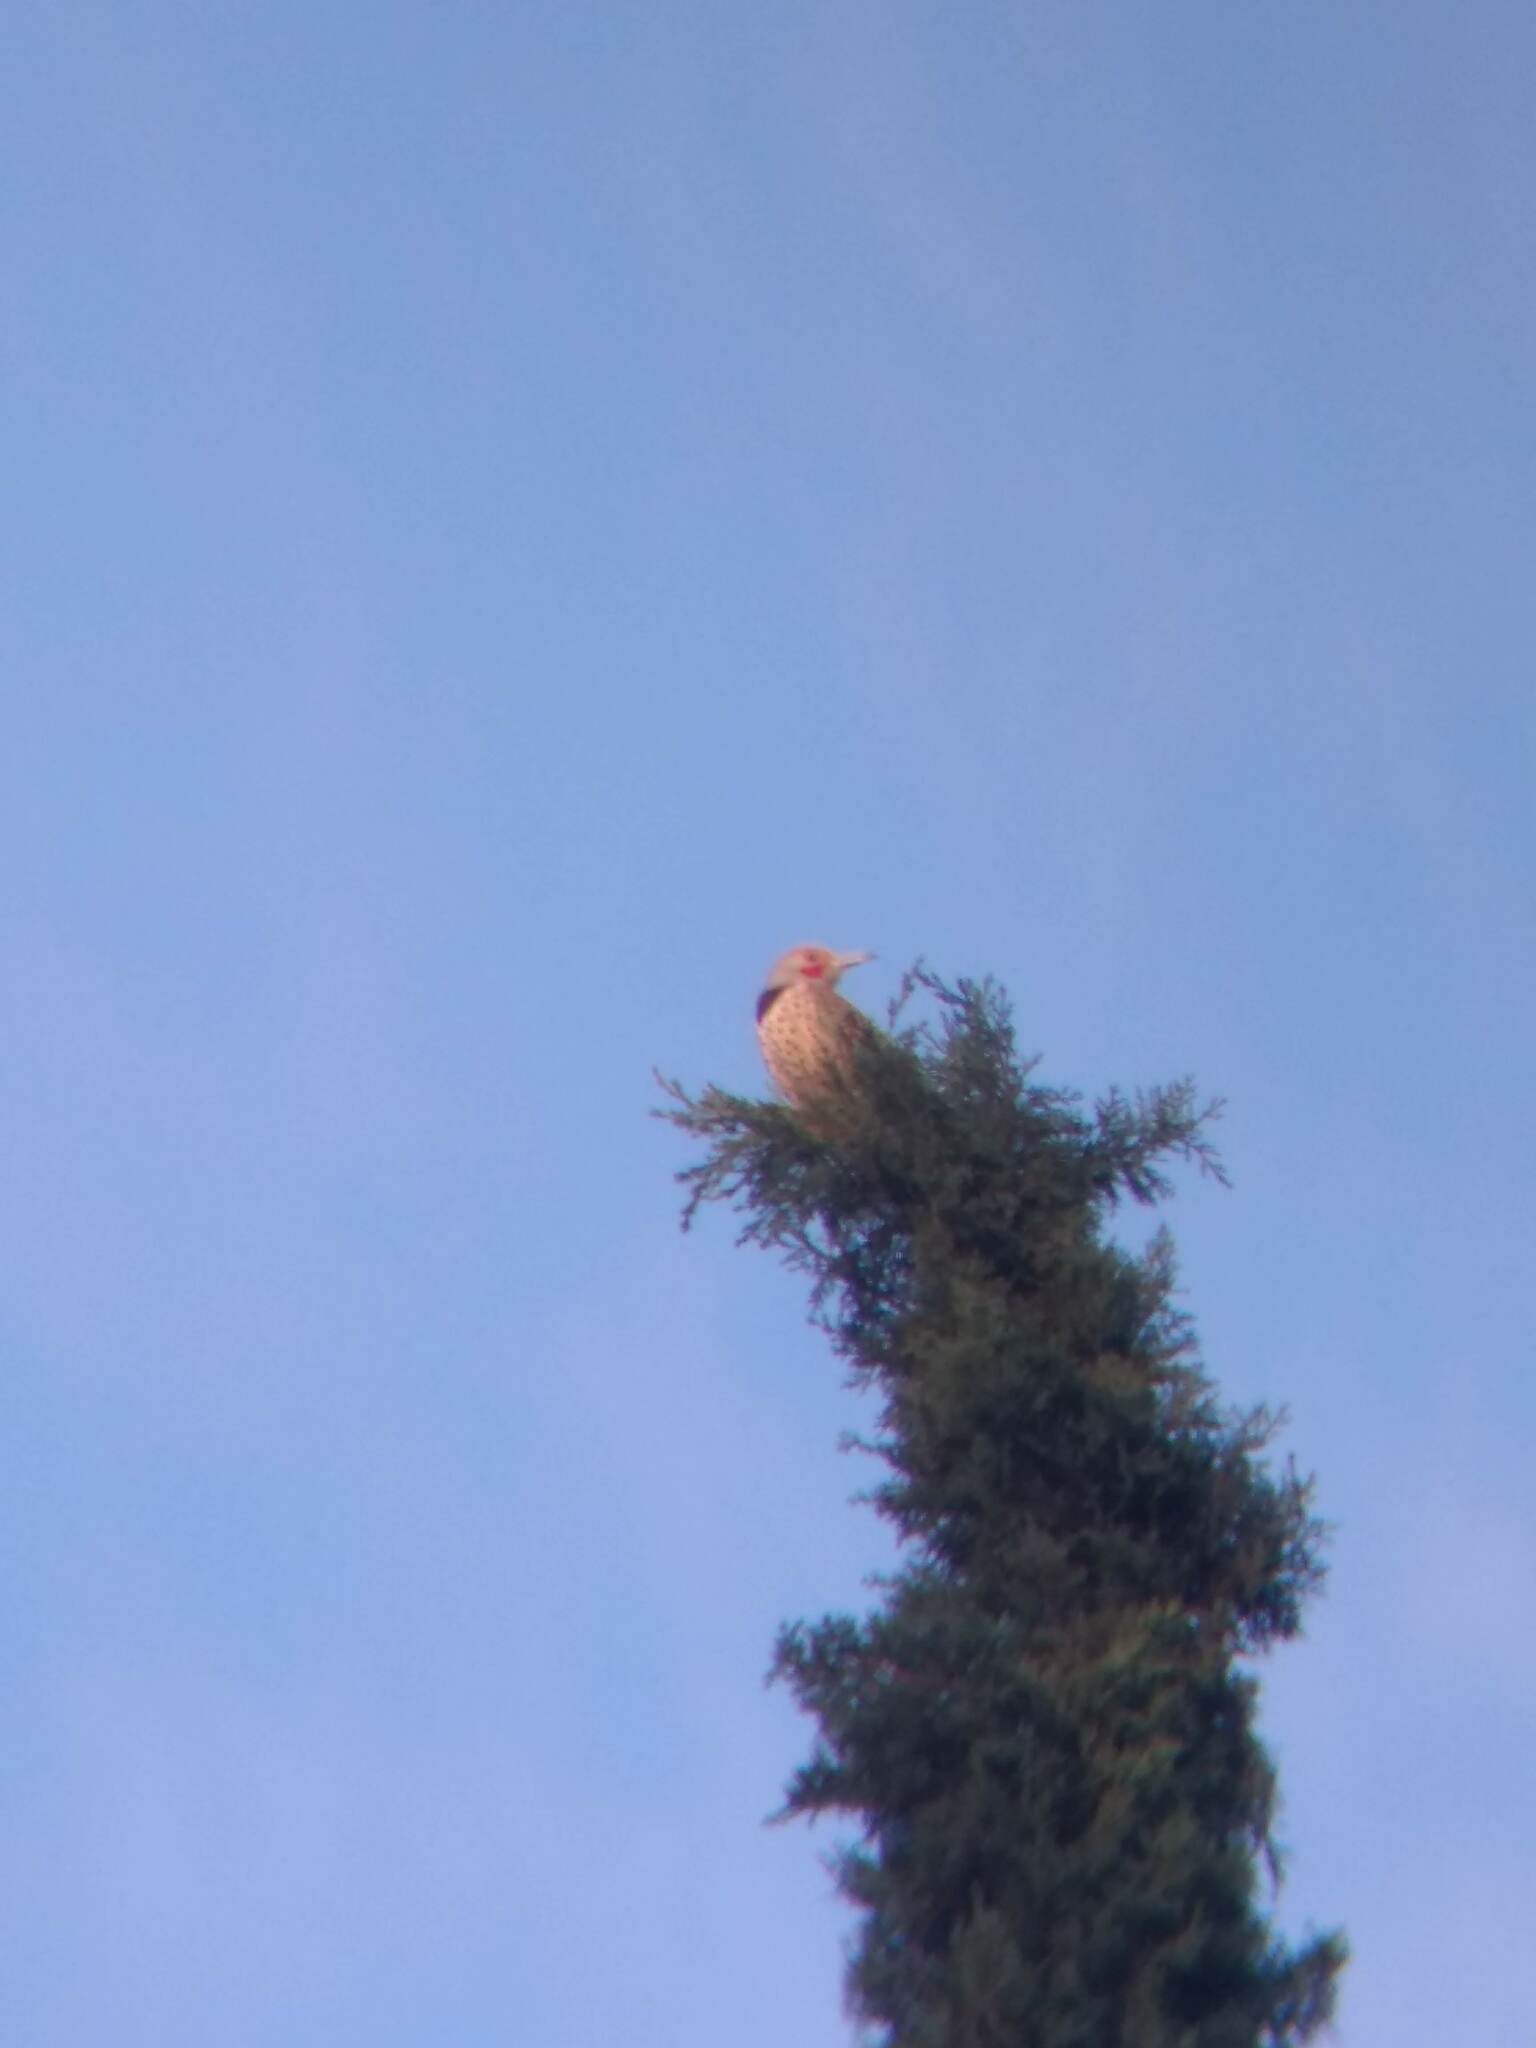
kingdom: Animalia
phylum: Chordata
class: Aves
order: Piciformes
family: Picidae
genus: Colaptes
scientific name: Colaptes auratus
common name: Northern flicker
